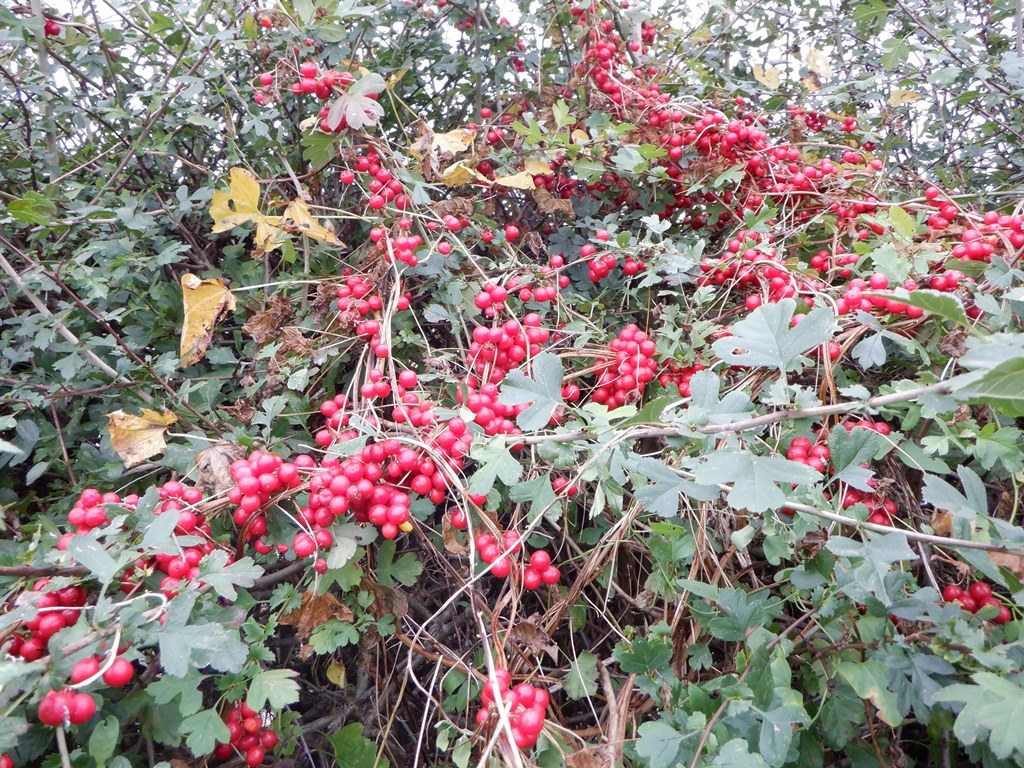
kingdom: Plantae
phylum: Tracheophyta
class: Liliopsida
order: Dioscoreales
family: Dioscoreaceae
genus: Dioscorea
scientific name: Dioscorea communis
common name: Black-bindweed
